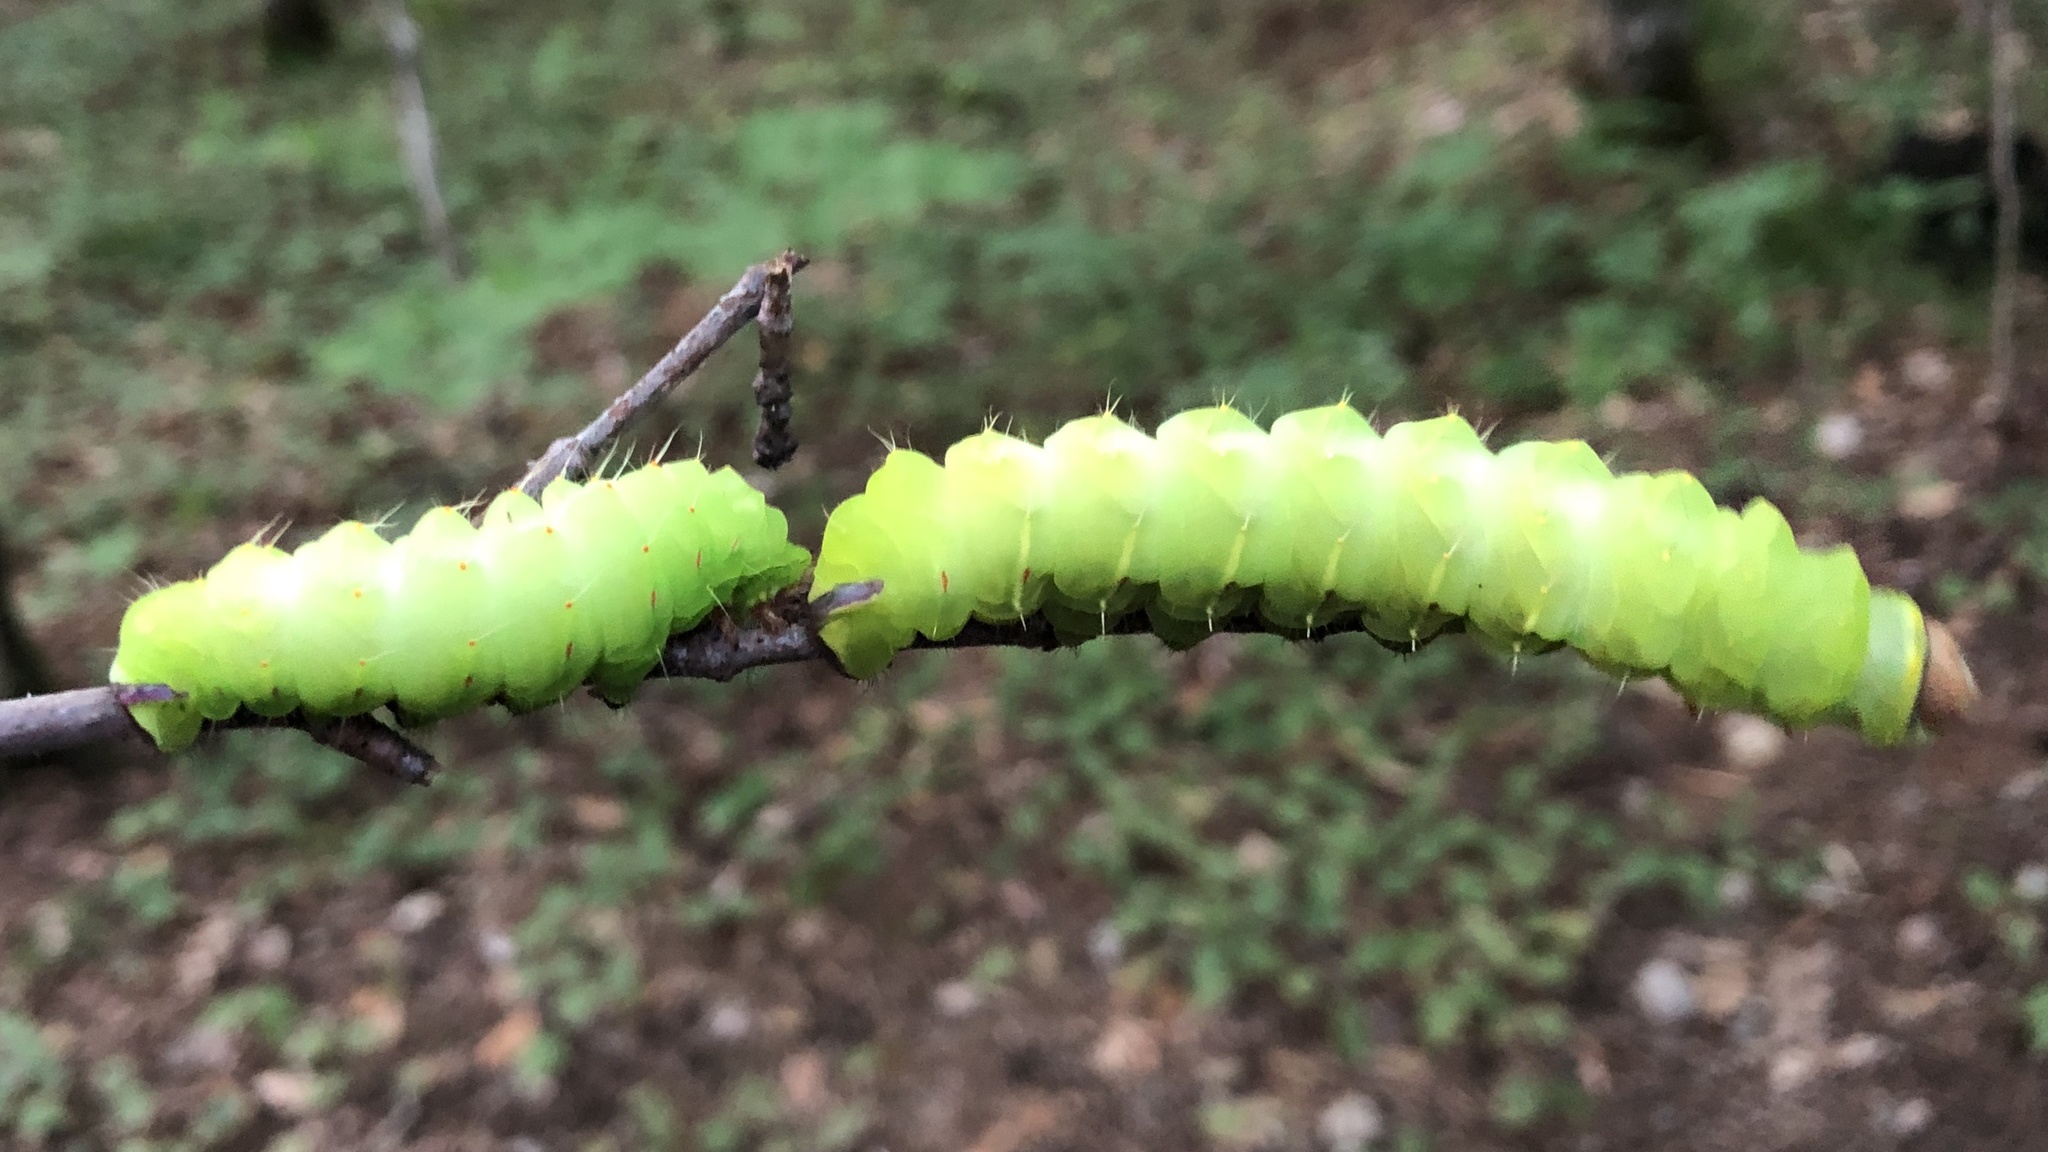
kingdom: Animalia
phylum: Arthropoda
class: Insecta
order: Lepidoptera
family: Saturniidae
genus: Antheraea
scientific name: Antheraea polyphemus
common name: Polyphemus moth
